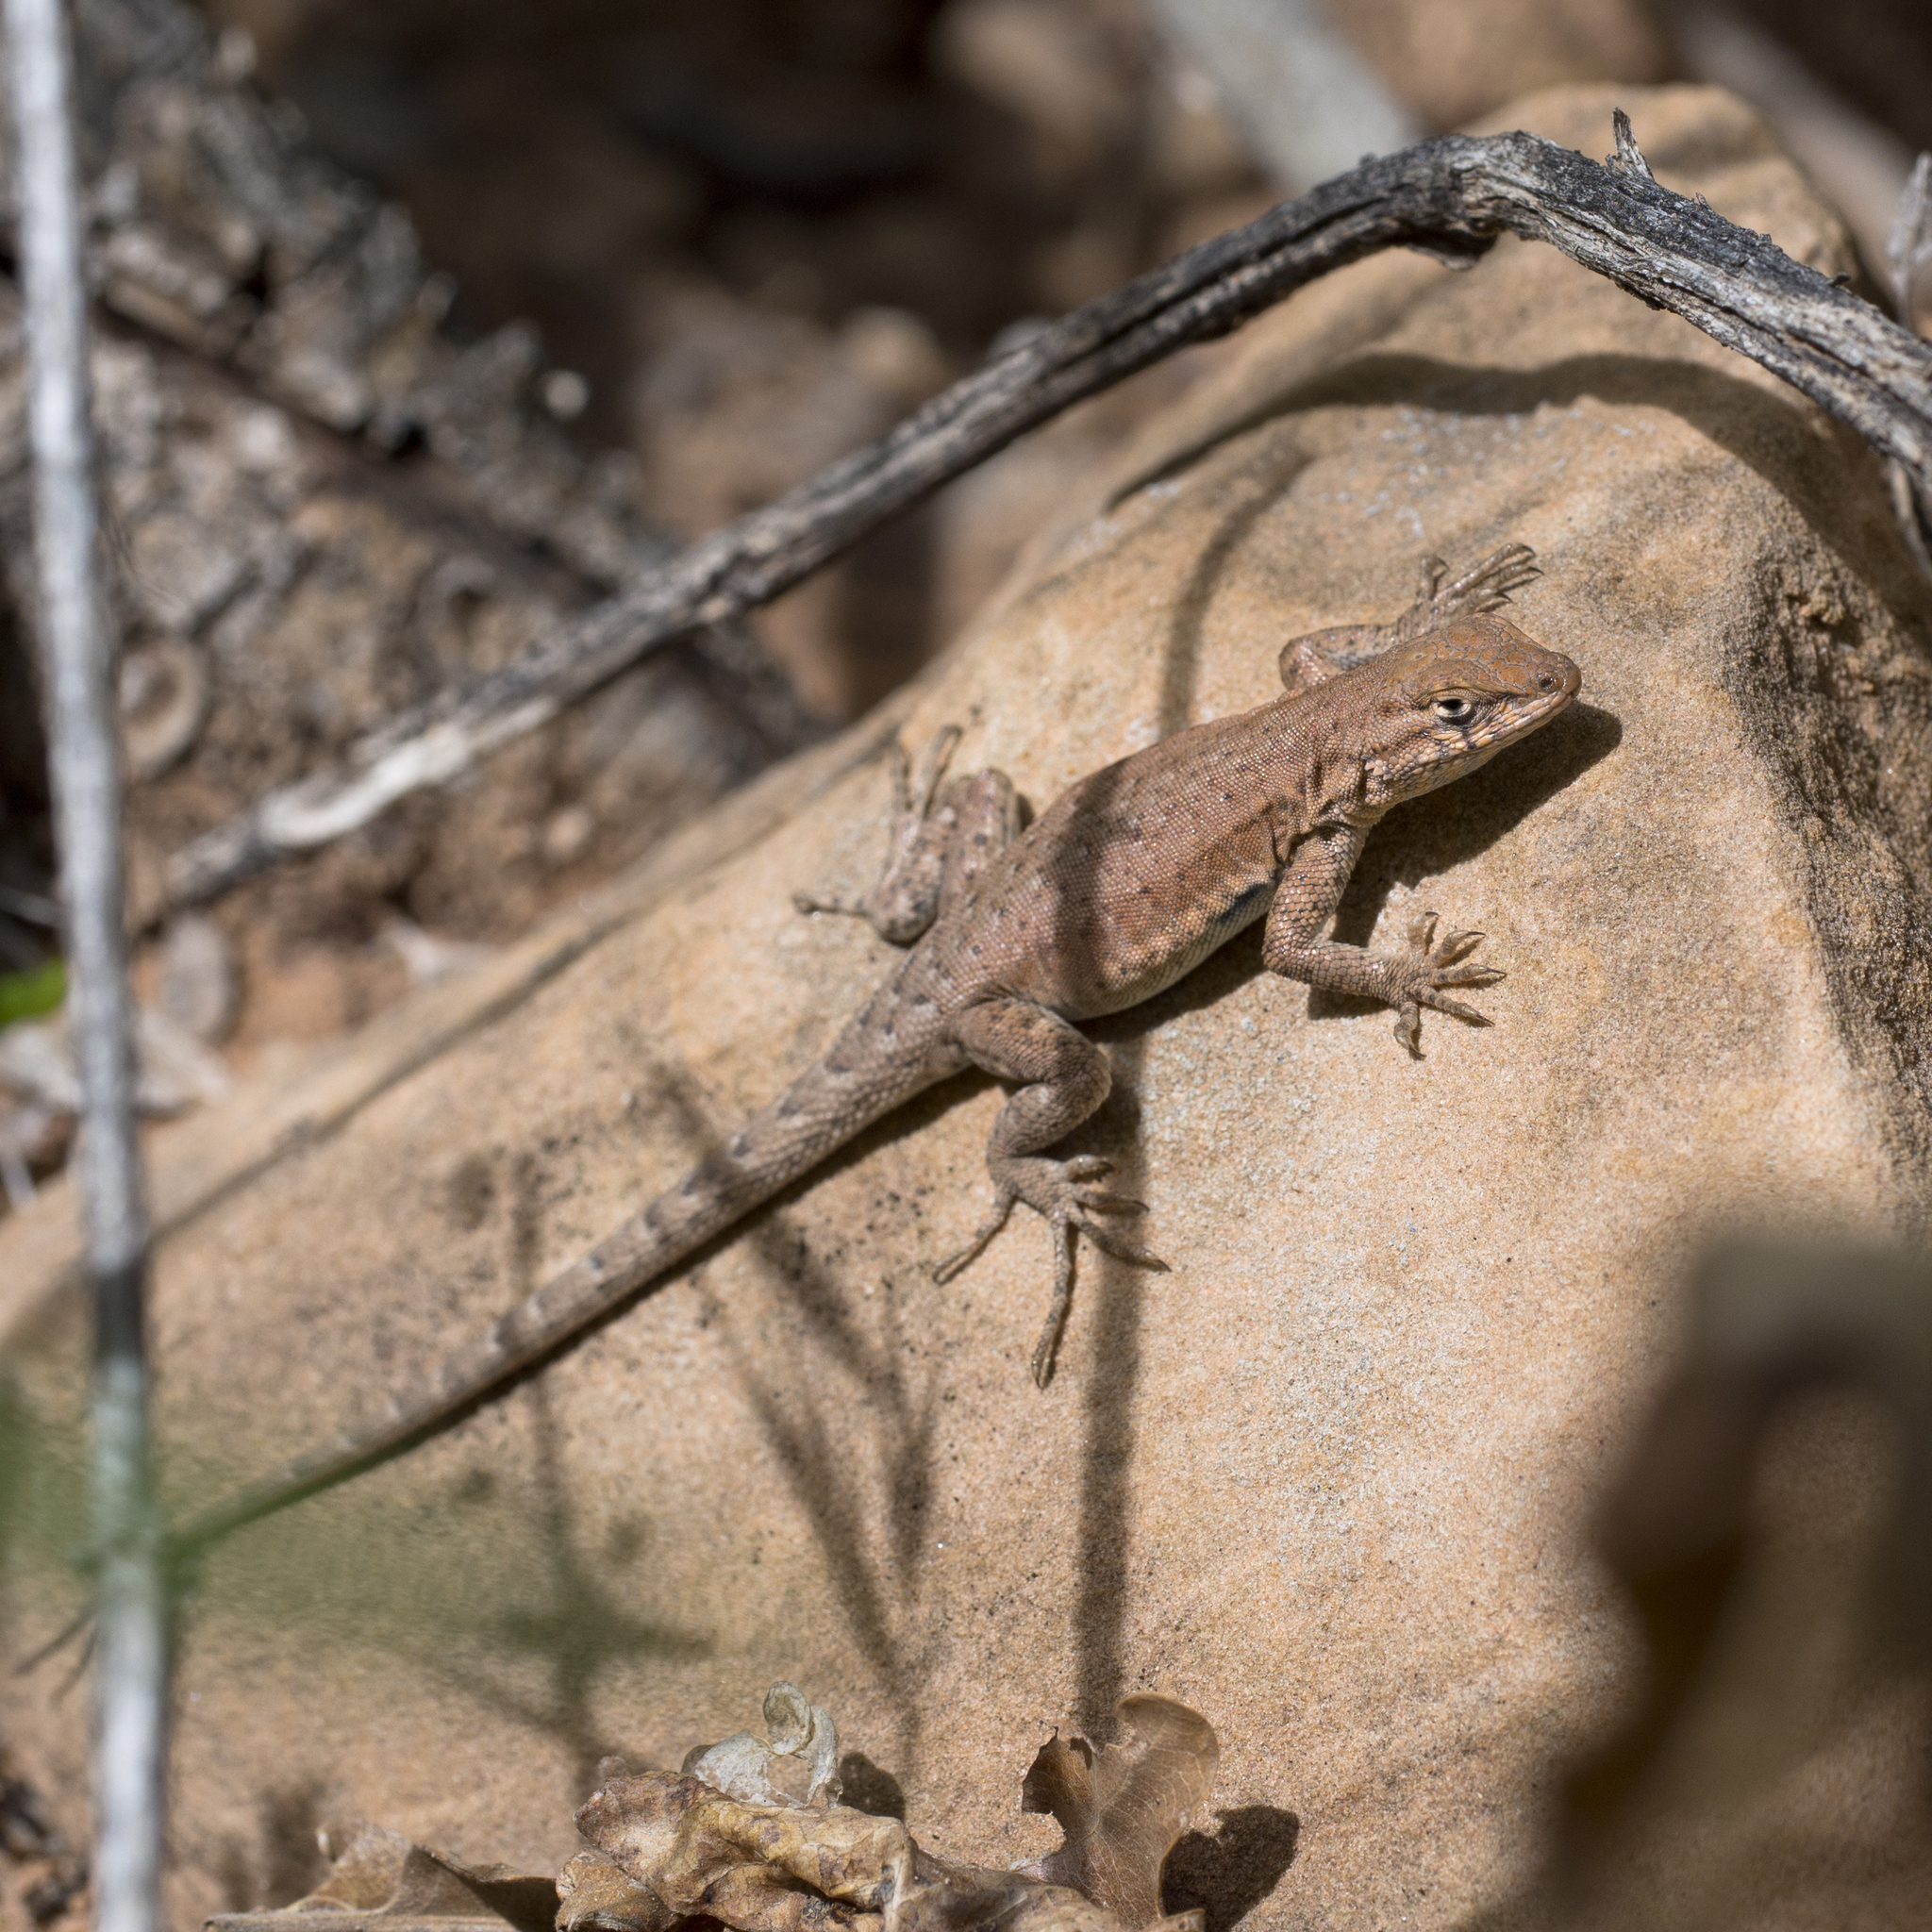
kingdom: Animalia
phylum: Chordata
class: Squamata
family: Phrynosomatidae
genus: Uta
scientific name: Uta stansburiana
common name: Side-blotched lizard
